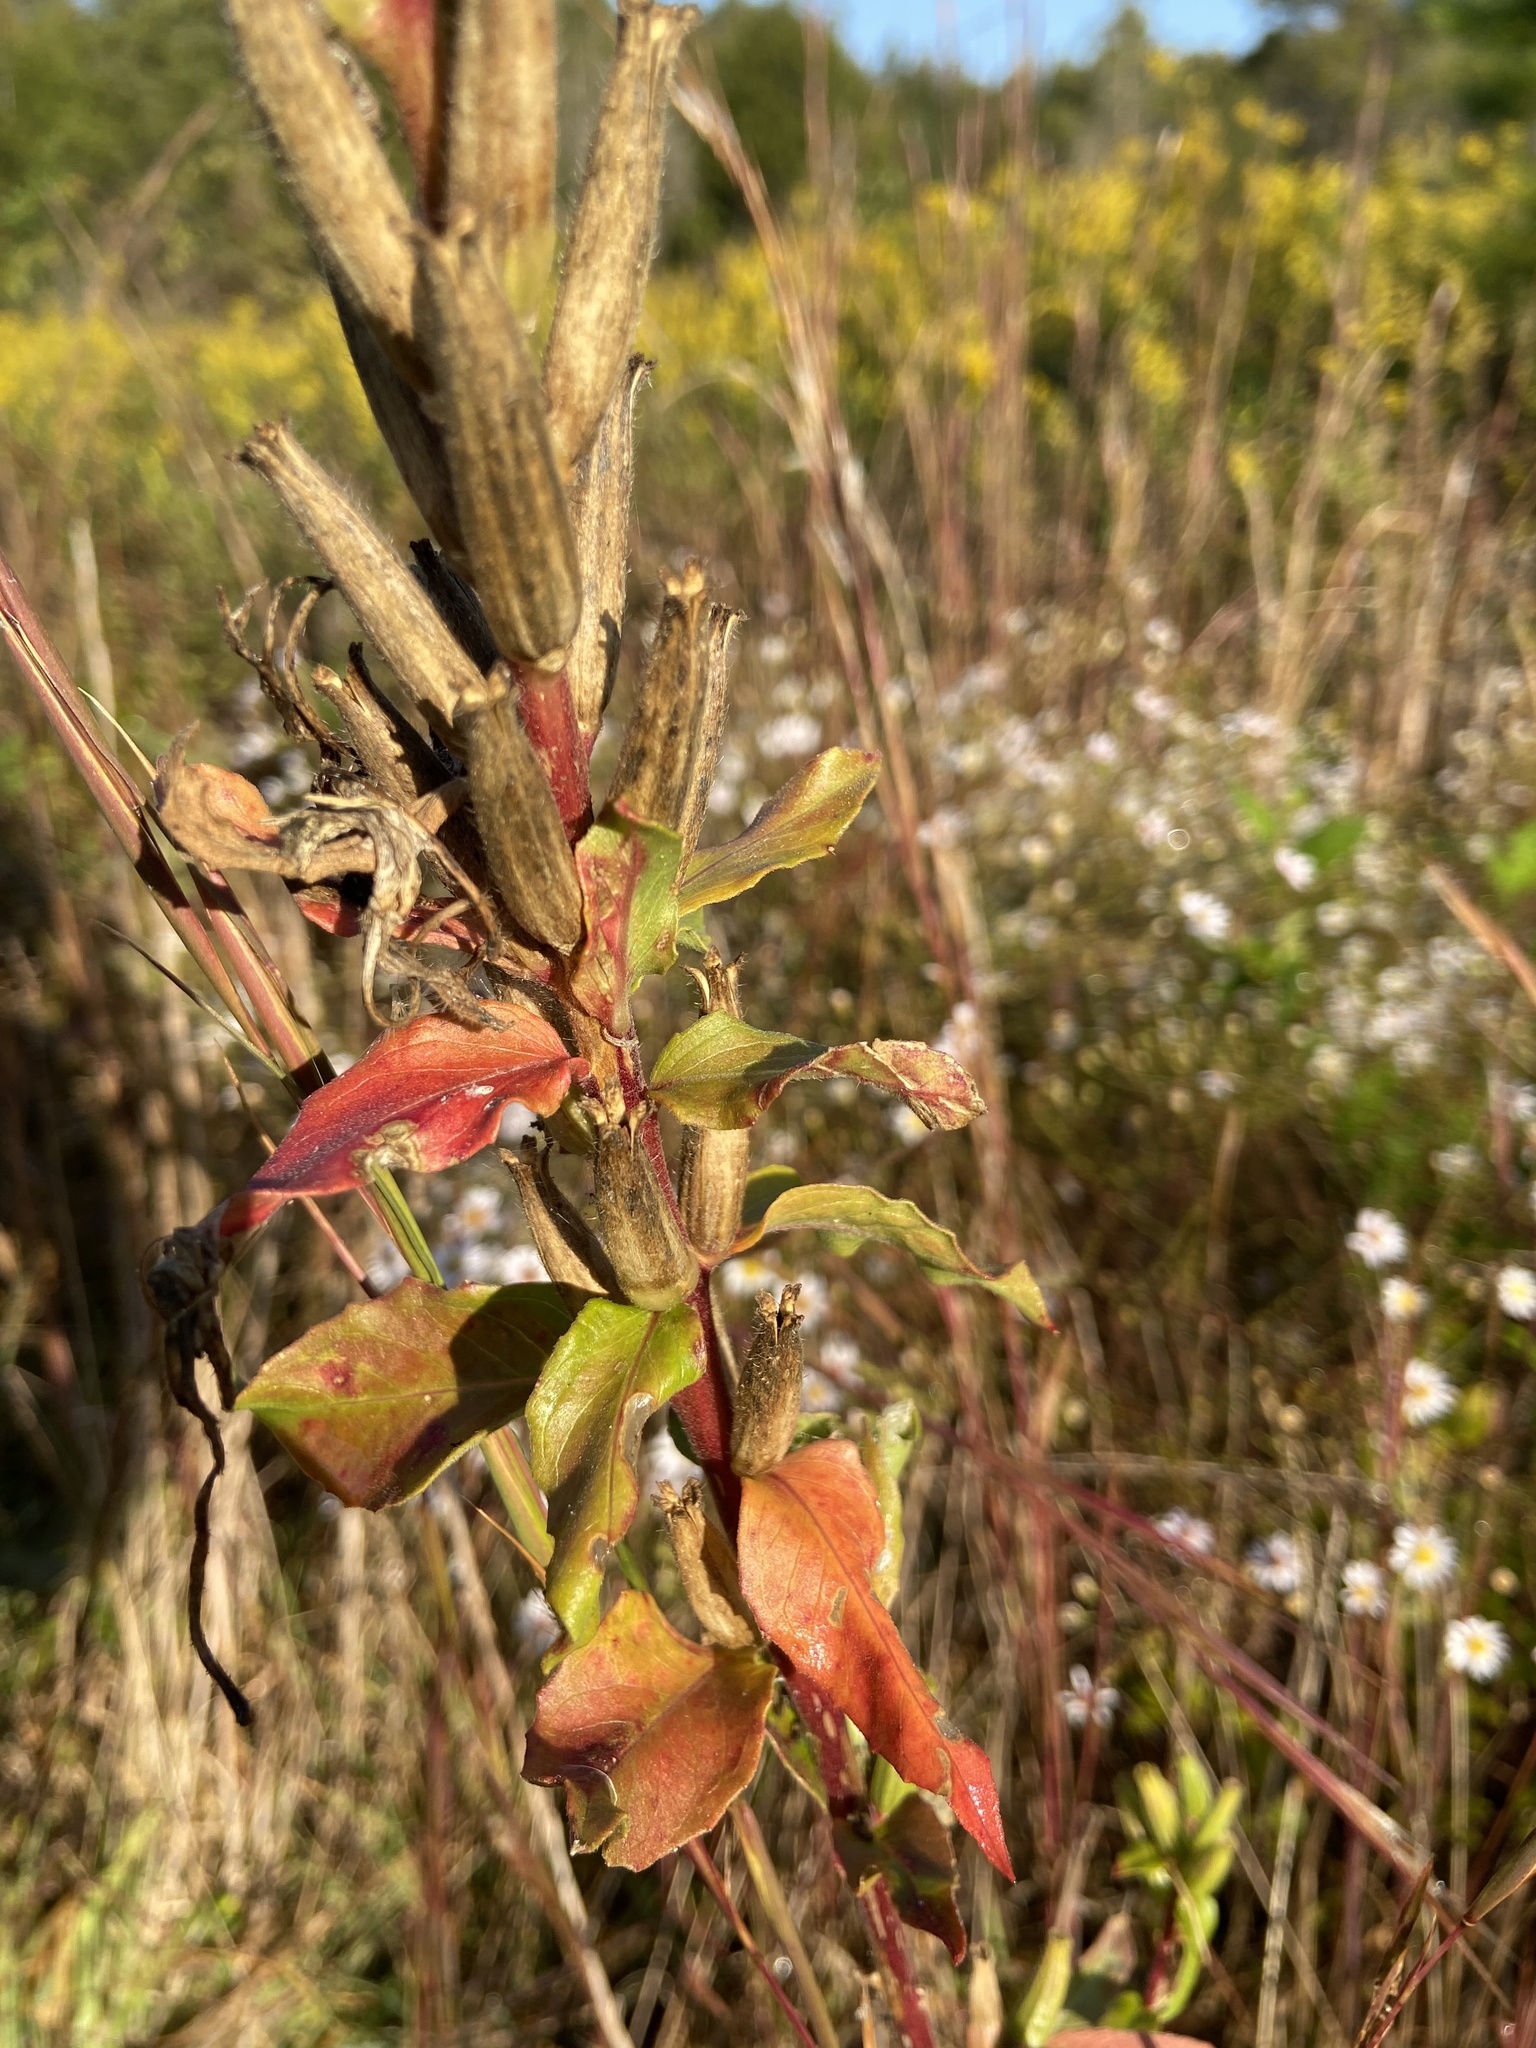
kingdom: Plantae
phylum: Tracheophyta
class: Magnoliopsida
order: Myrtales
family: Onagraceae
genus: Oenothera
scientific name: Oenothera biennis
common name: Common evening-primrose
